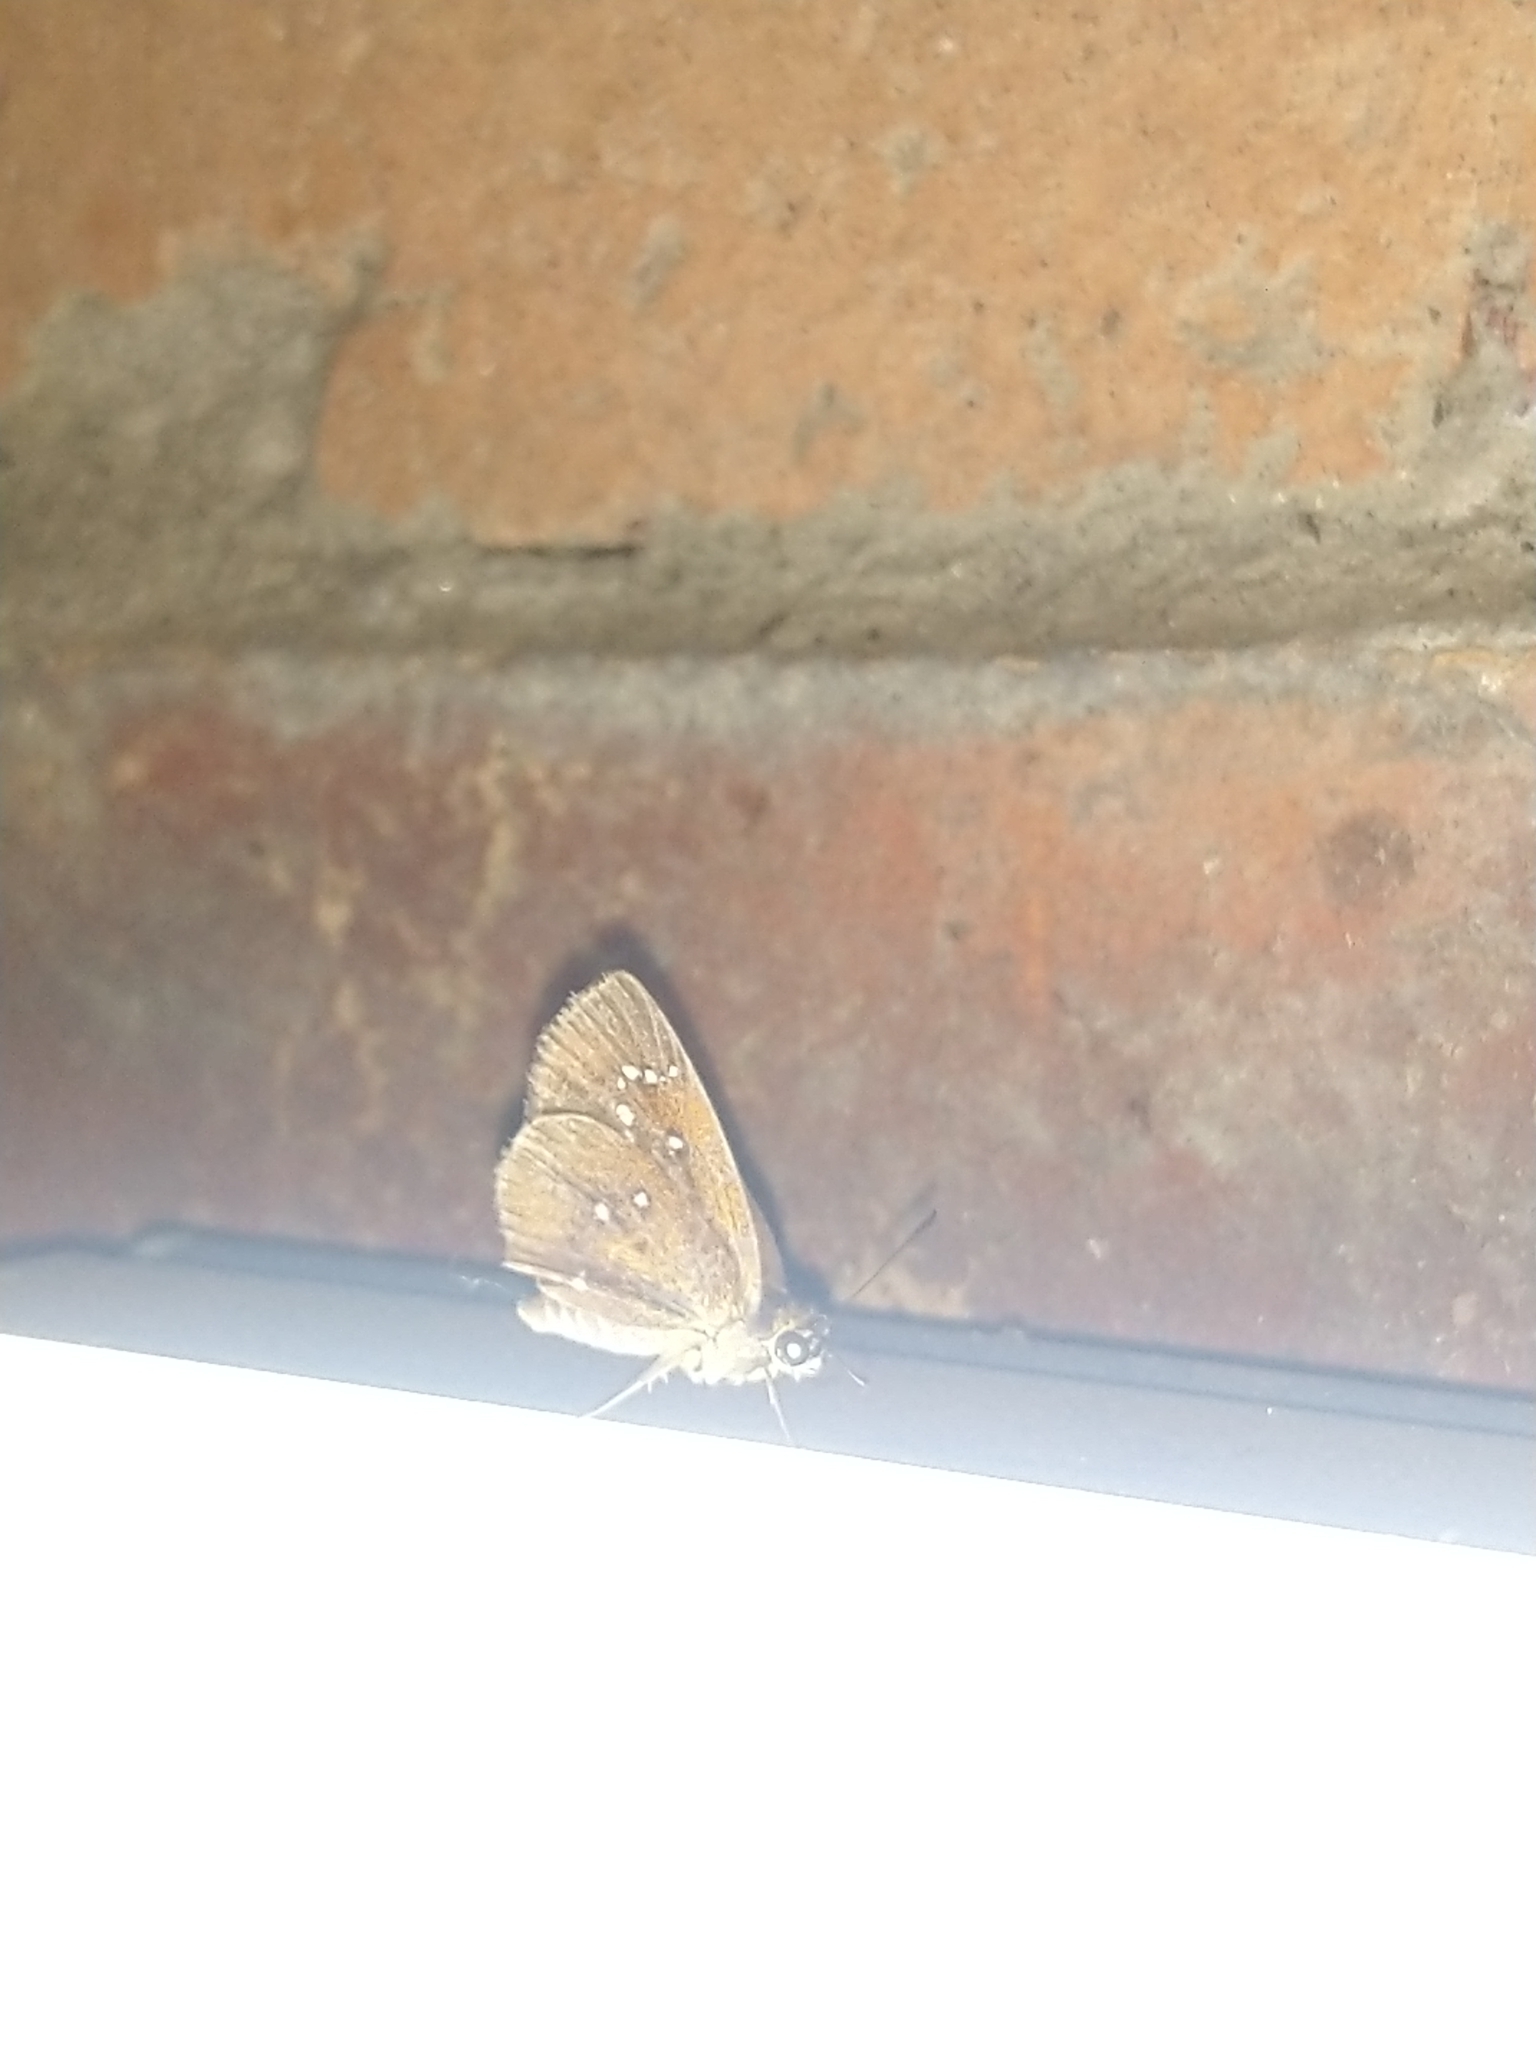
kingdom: Animalia
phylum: Arthropoda
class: Insecta
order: Lepidoptera
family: Hesperiidae
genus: Iambrix
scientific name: Iambrix salsala
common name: Chestnut bob
